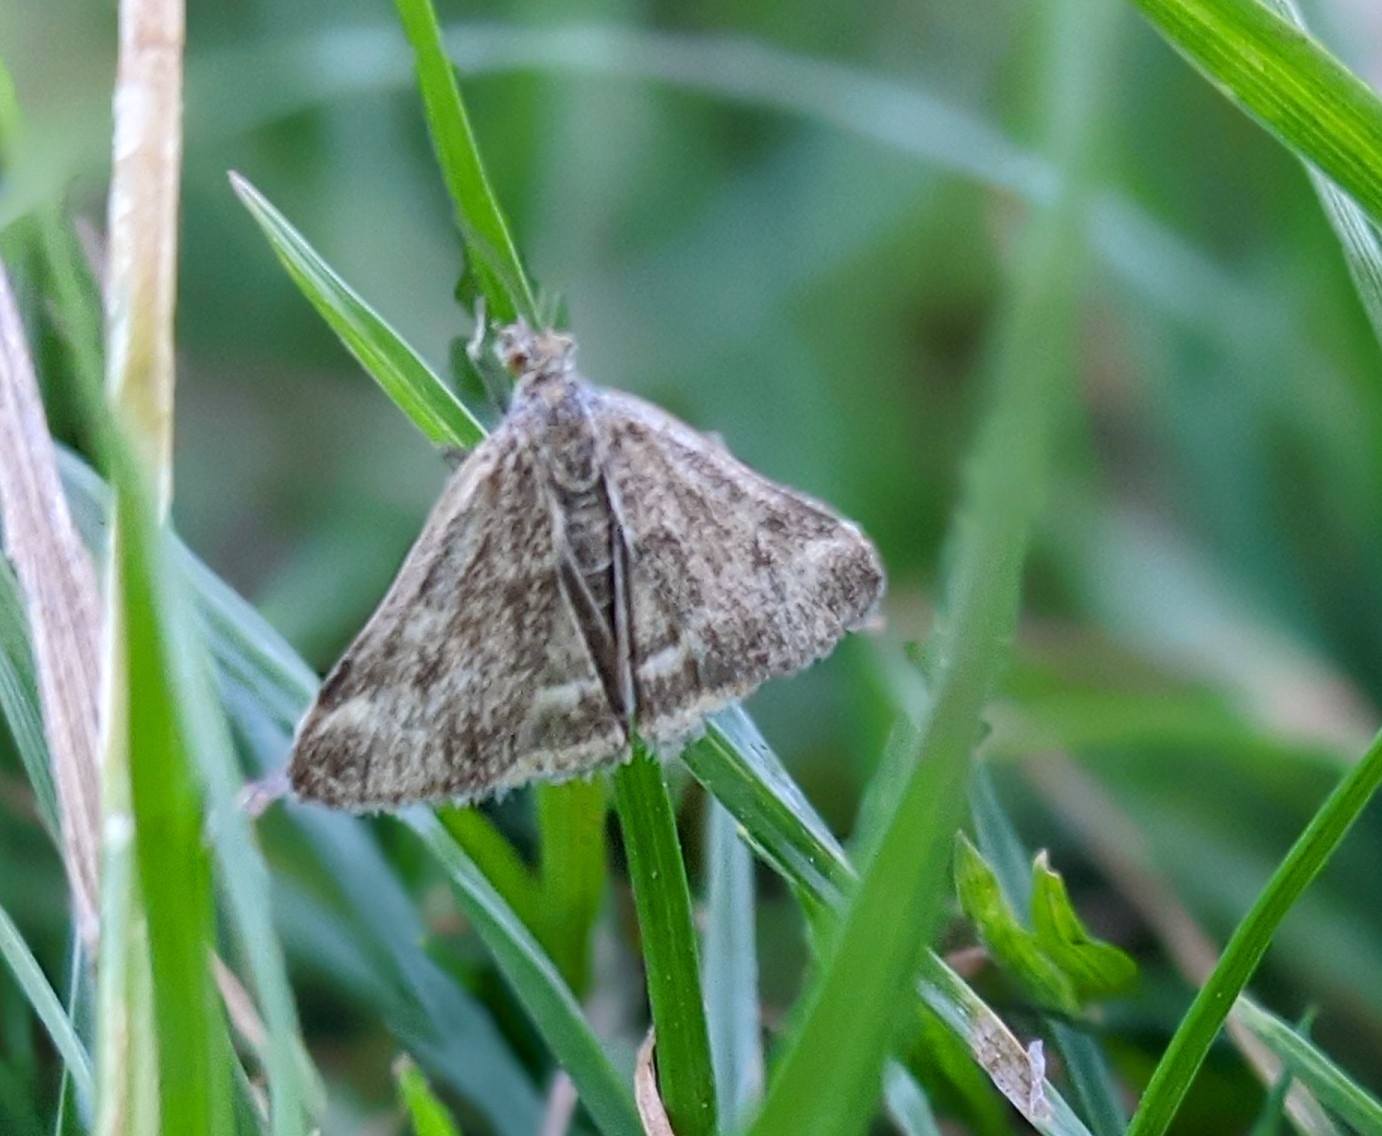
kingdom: Animalia
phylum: Arthropoda
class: Insecta
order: Lepidoptera
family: Crambidae
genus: Pyrausta
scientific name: Pyrausta despicata
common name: Straw-barred pearl
